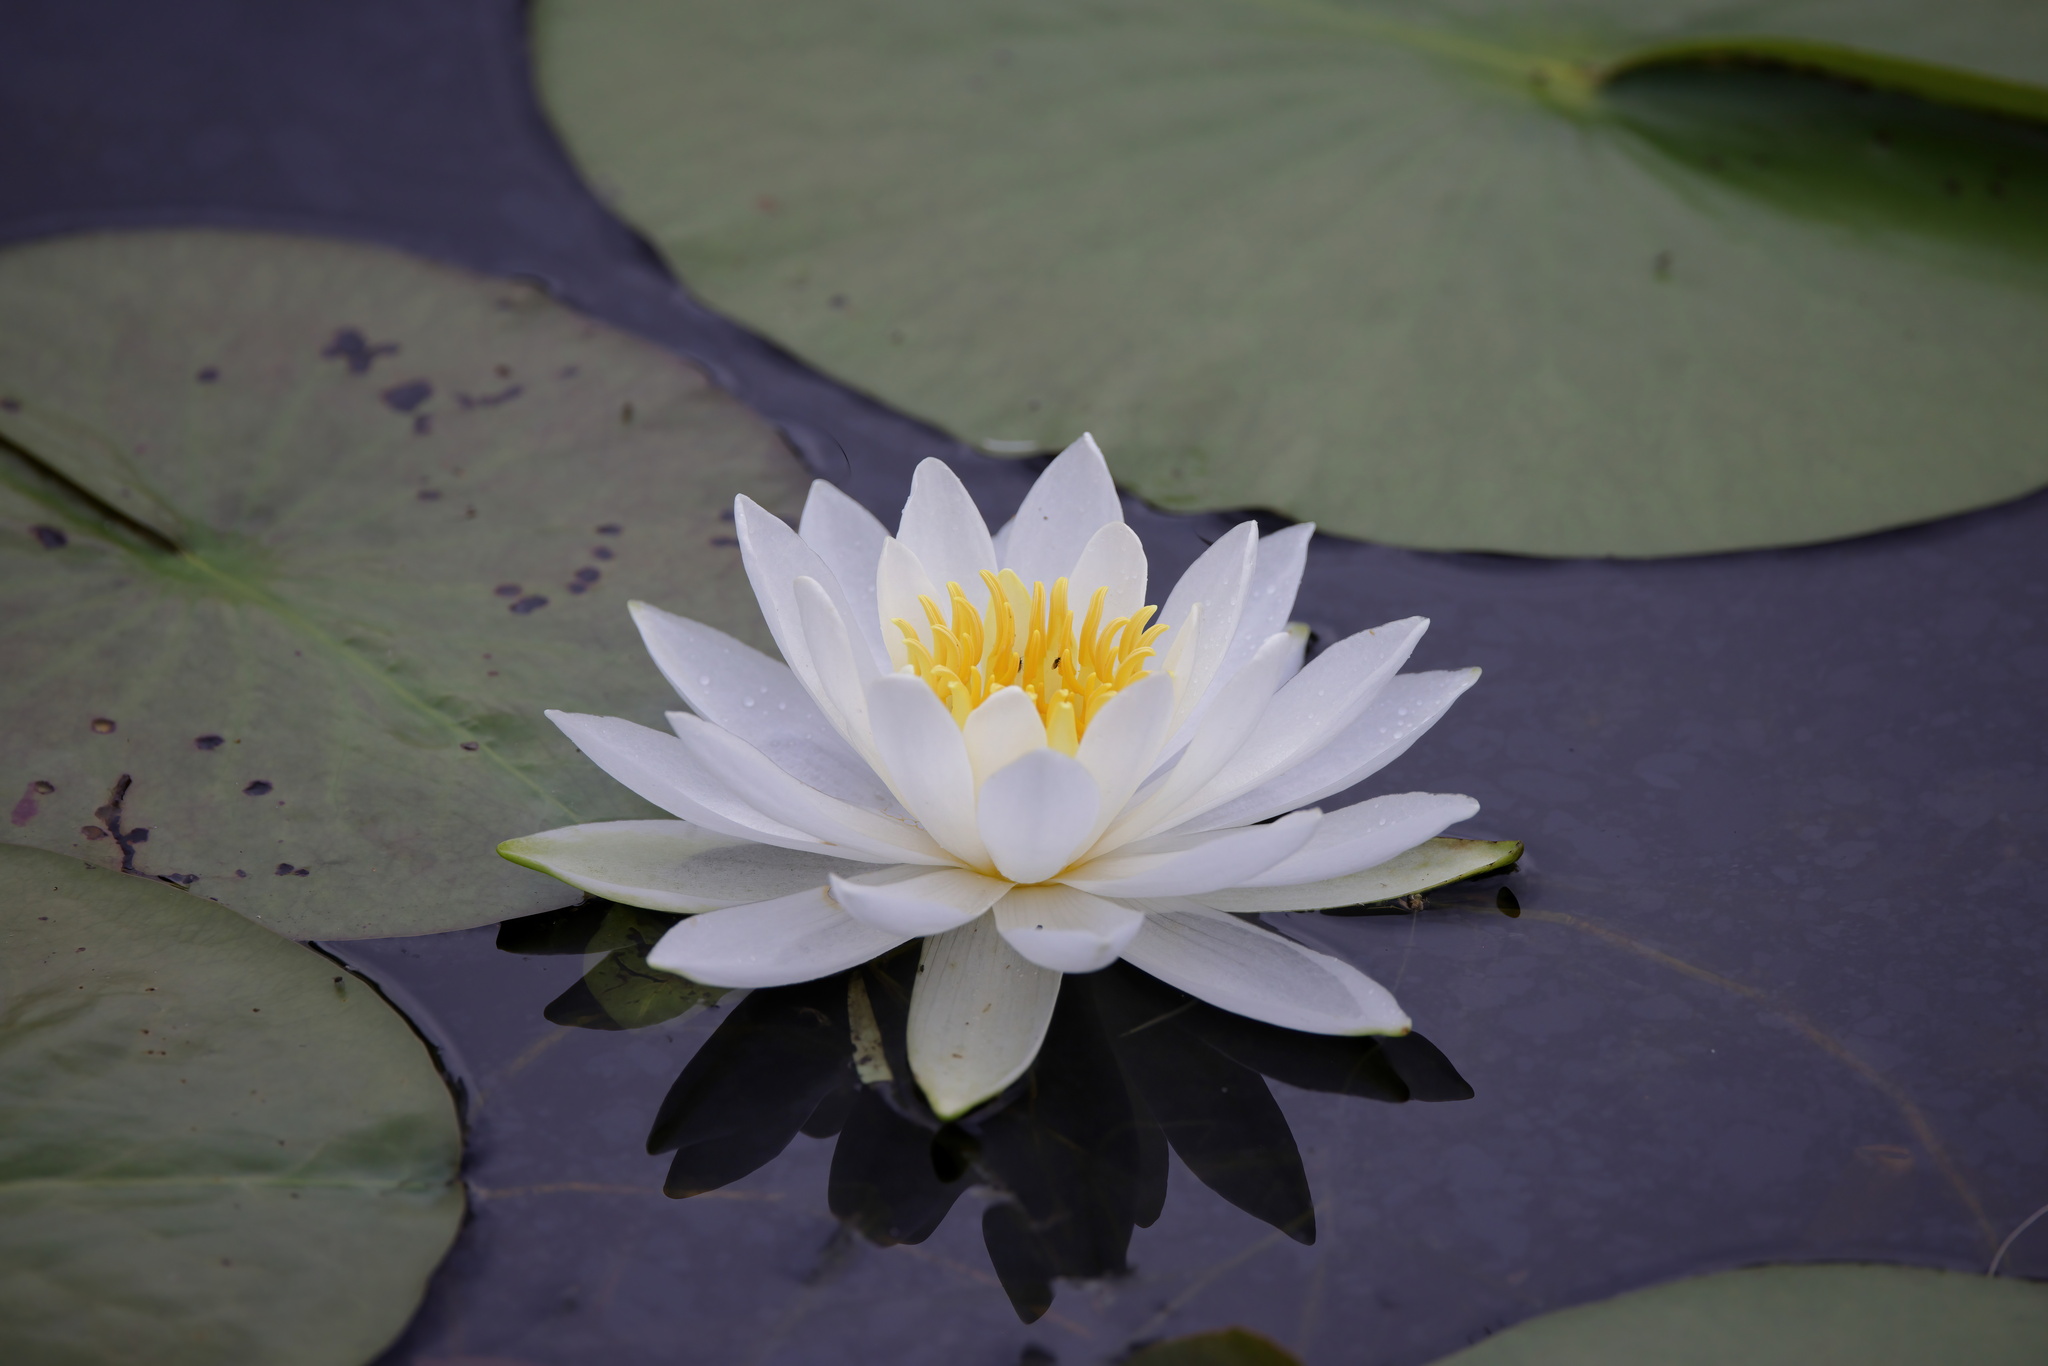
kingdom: Plantae
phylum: Tracheophyta
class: Magnoliopsida
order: Nymphaeales
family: Nymphaeaceae
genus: Nymphaea
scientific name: Nymphaea odorata
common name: Fragrant water-lily
